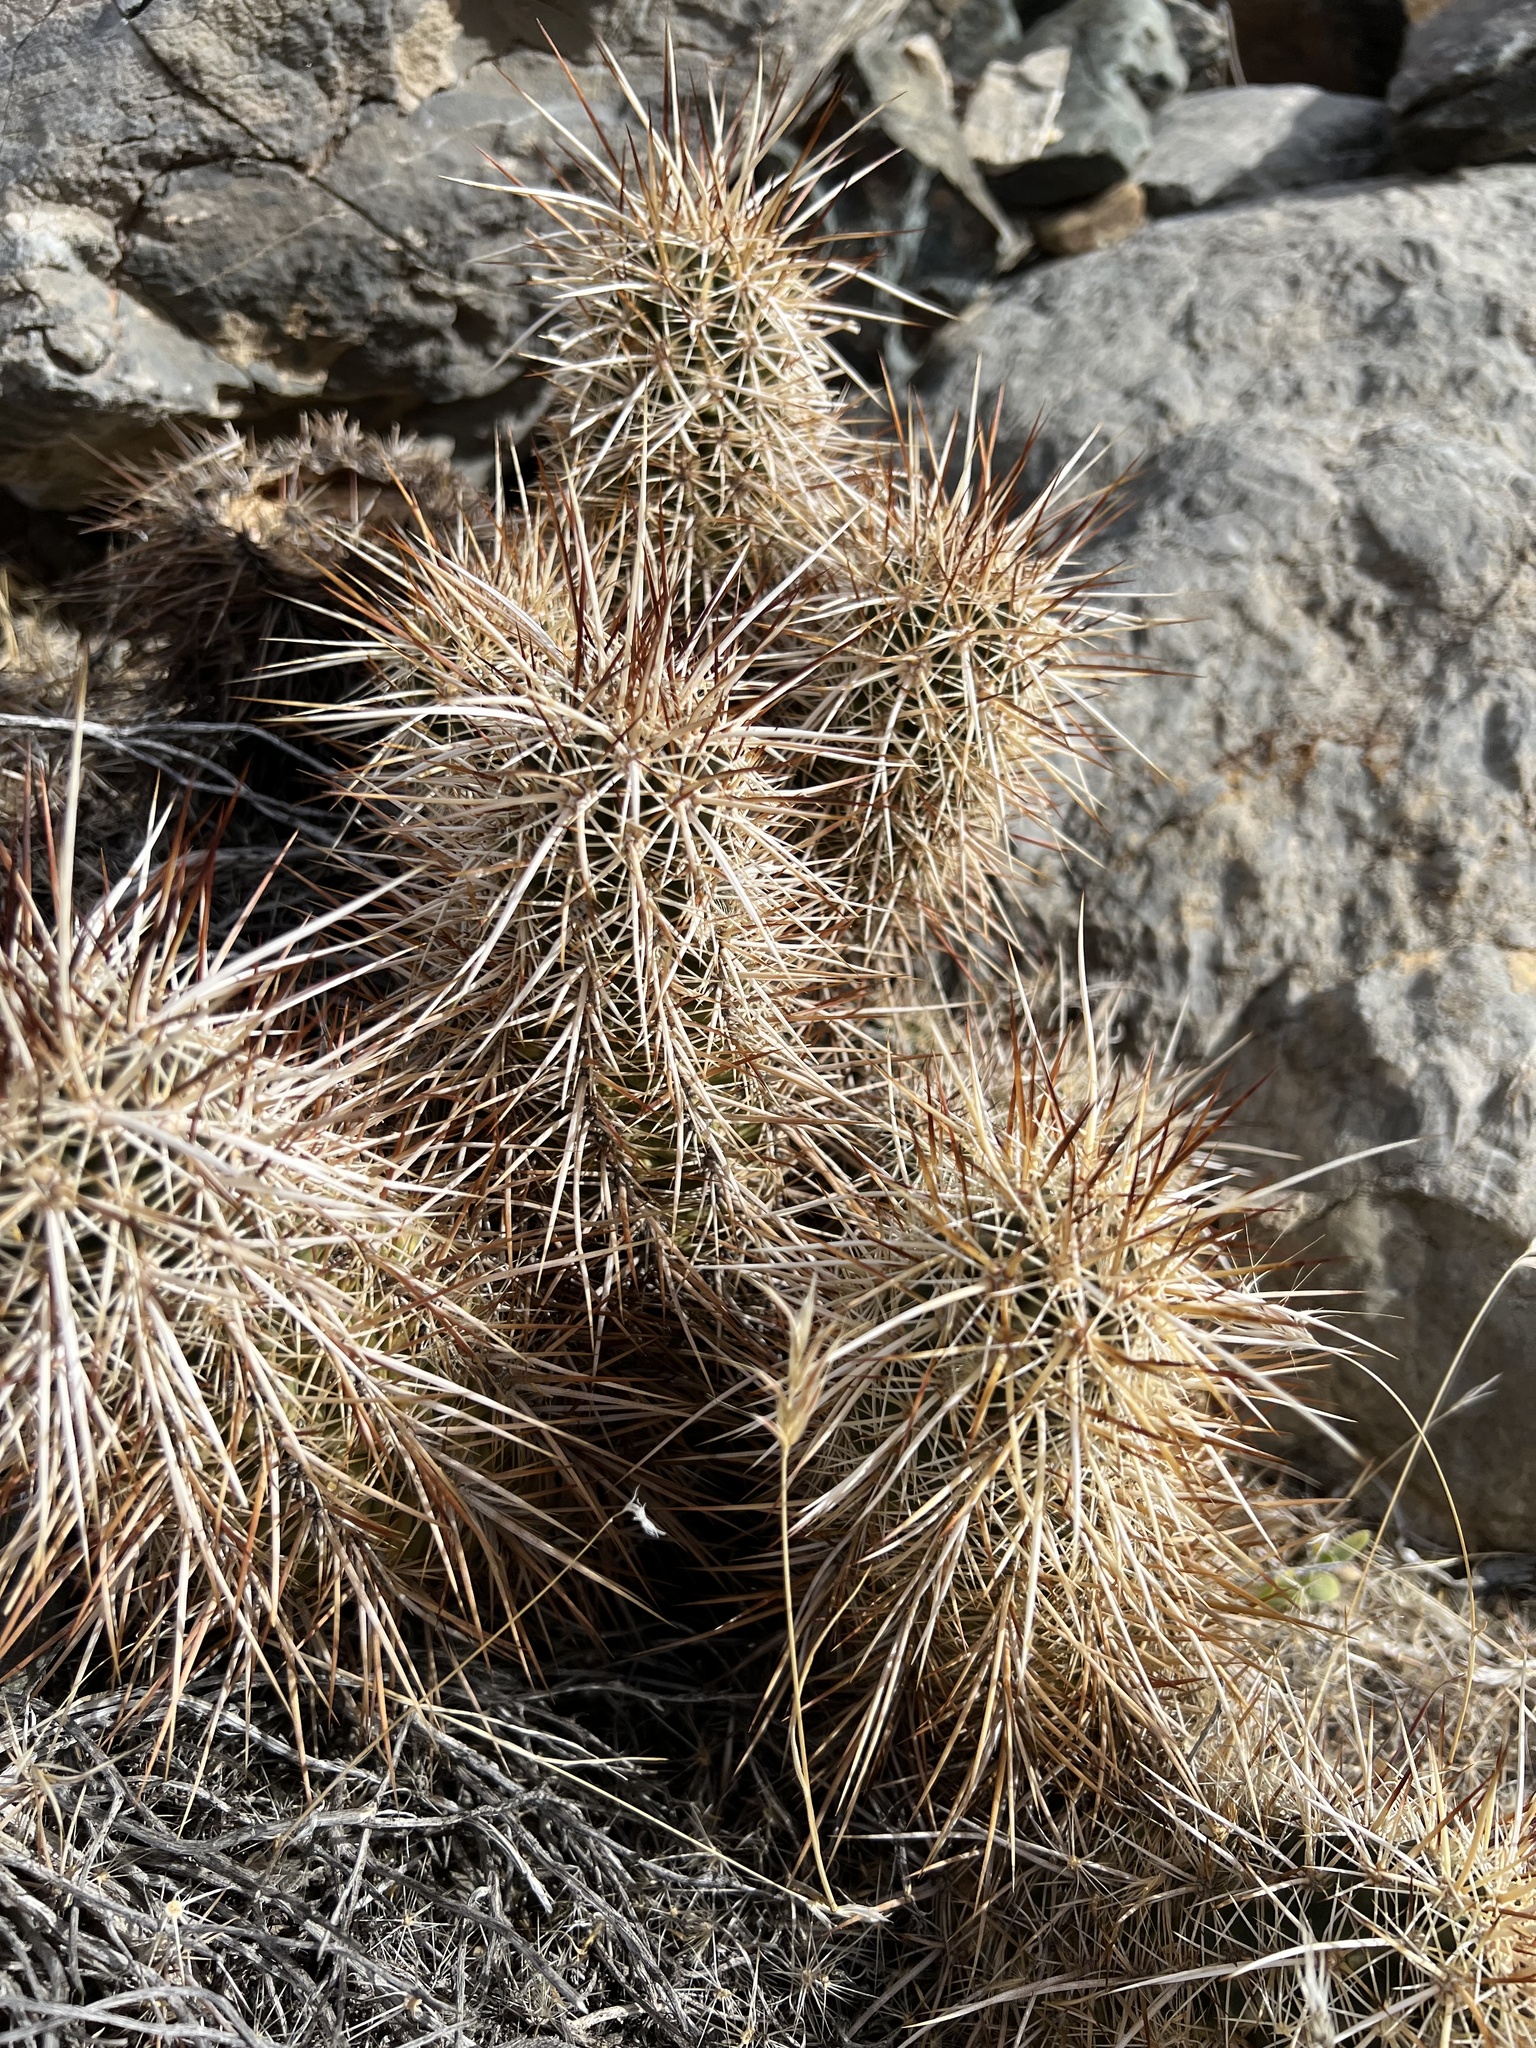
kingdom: Plantae
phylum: Tracheophyta
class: Magnoliopsida
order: Caryophyllales
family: Cactaceae
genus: Echinocereus
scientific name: Echinocereus engelmannii
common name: Engelmann's hedgehog cactus
